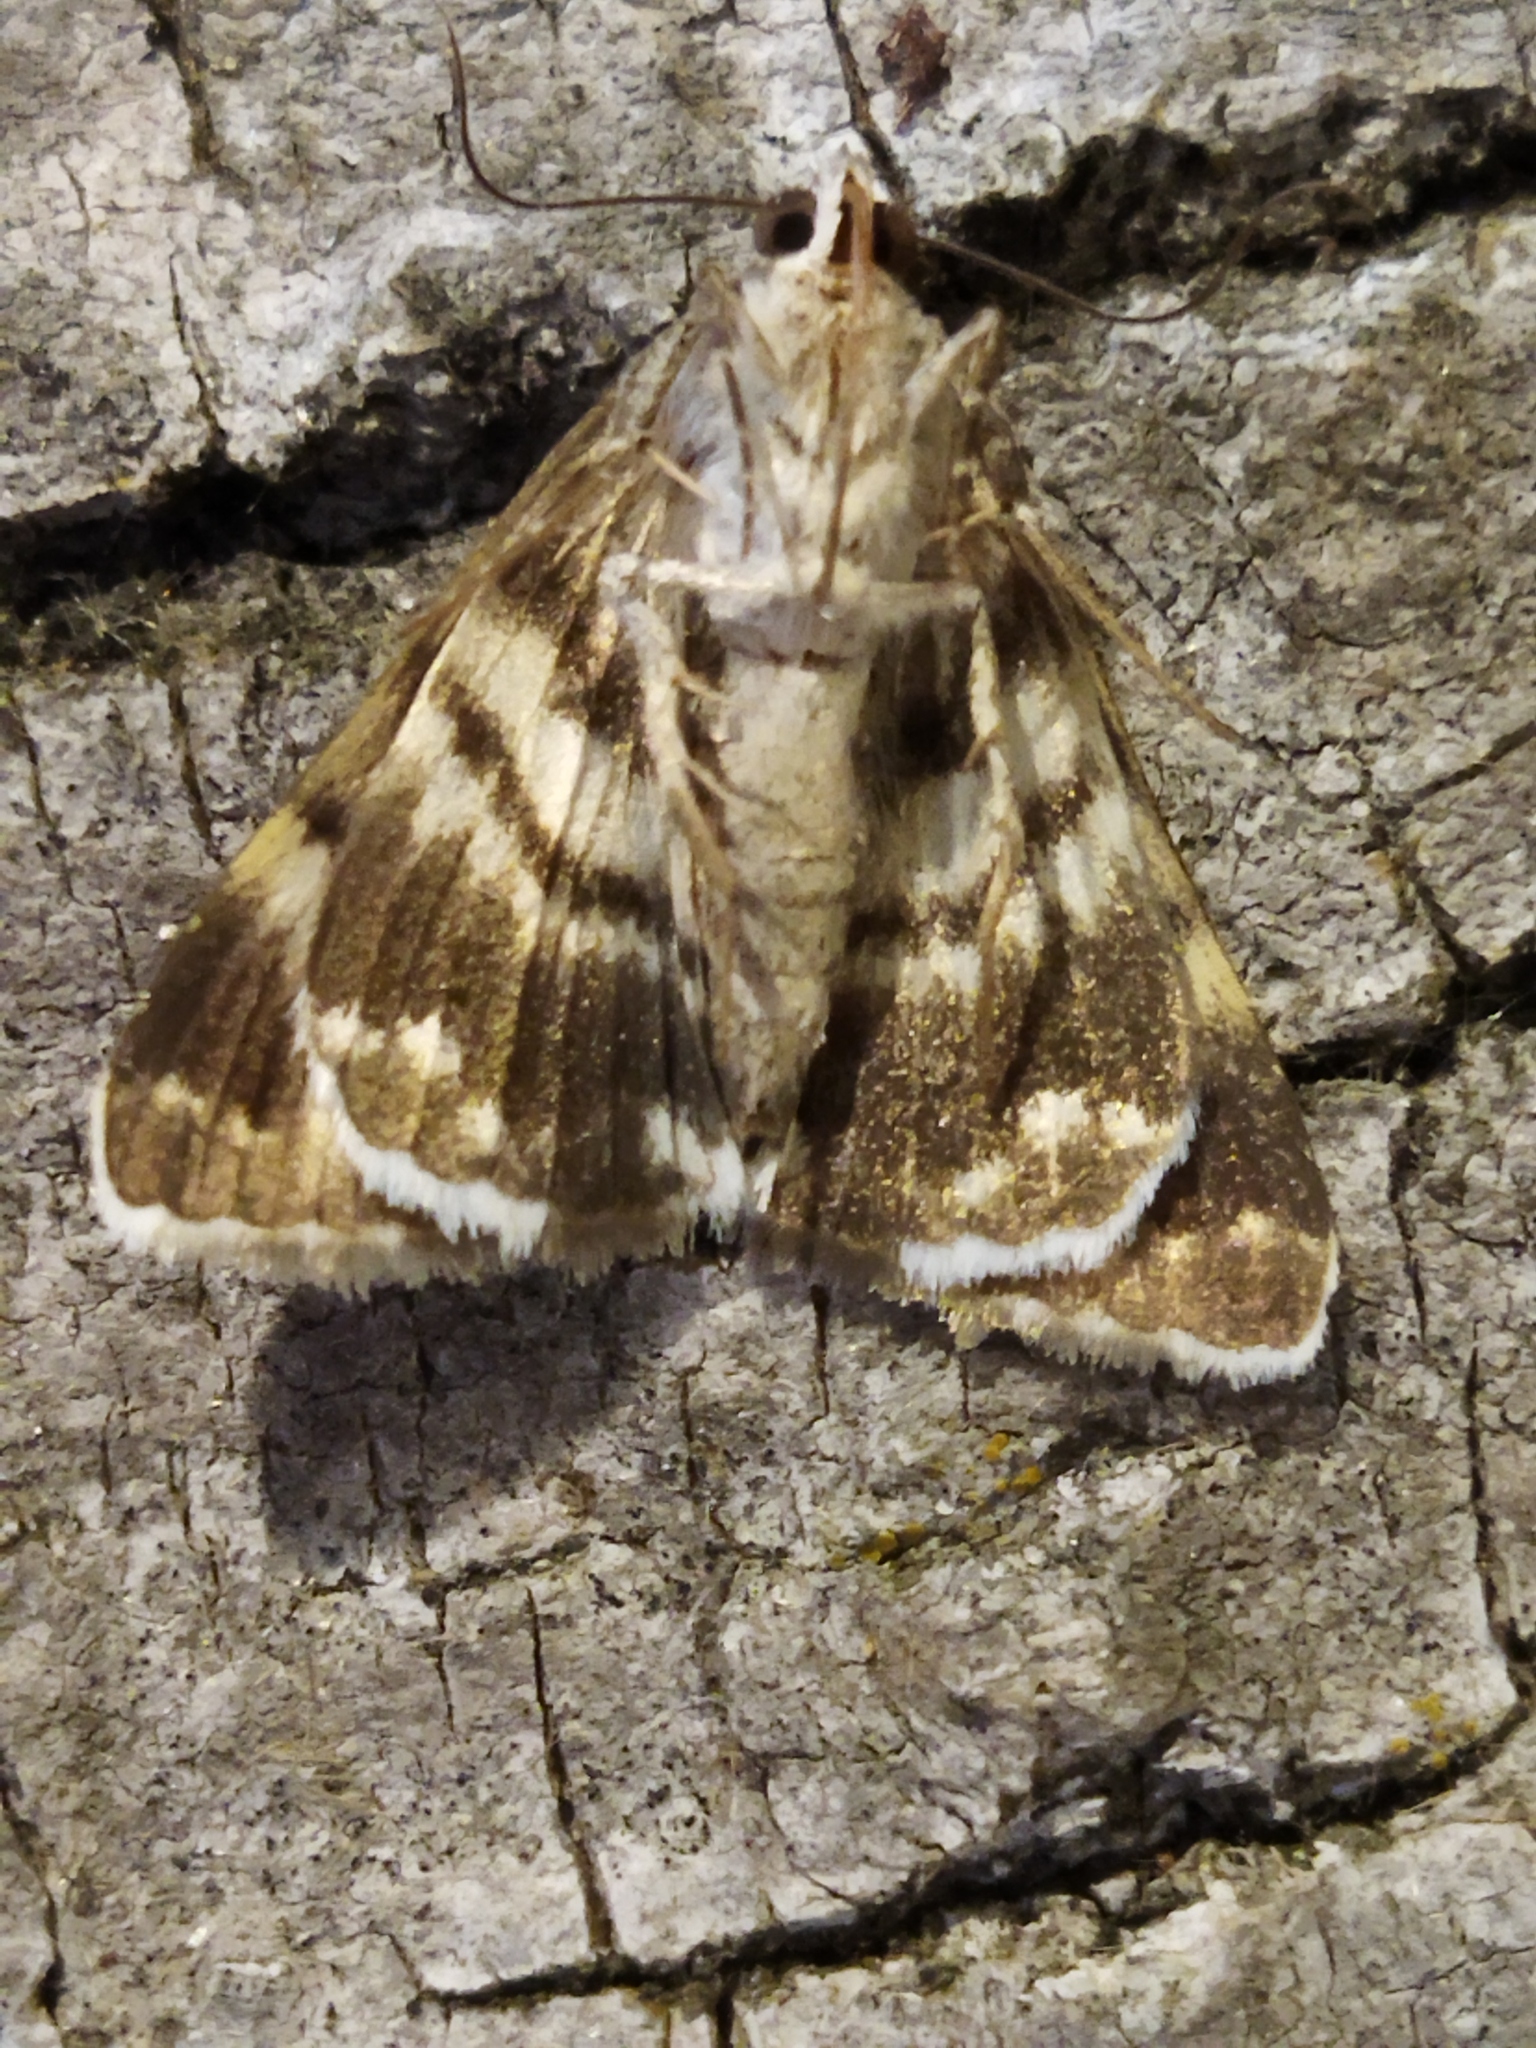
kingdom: Animalia
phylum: Arthropoda
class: Insecta
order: Lepidoptera
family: Erebidae
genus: Grammodes
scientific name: Grammodes stolida
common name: Geometrician
